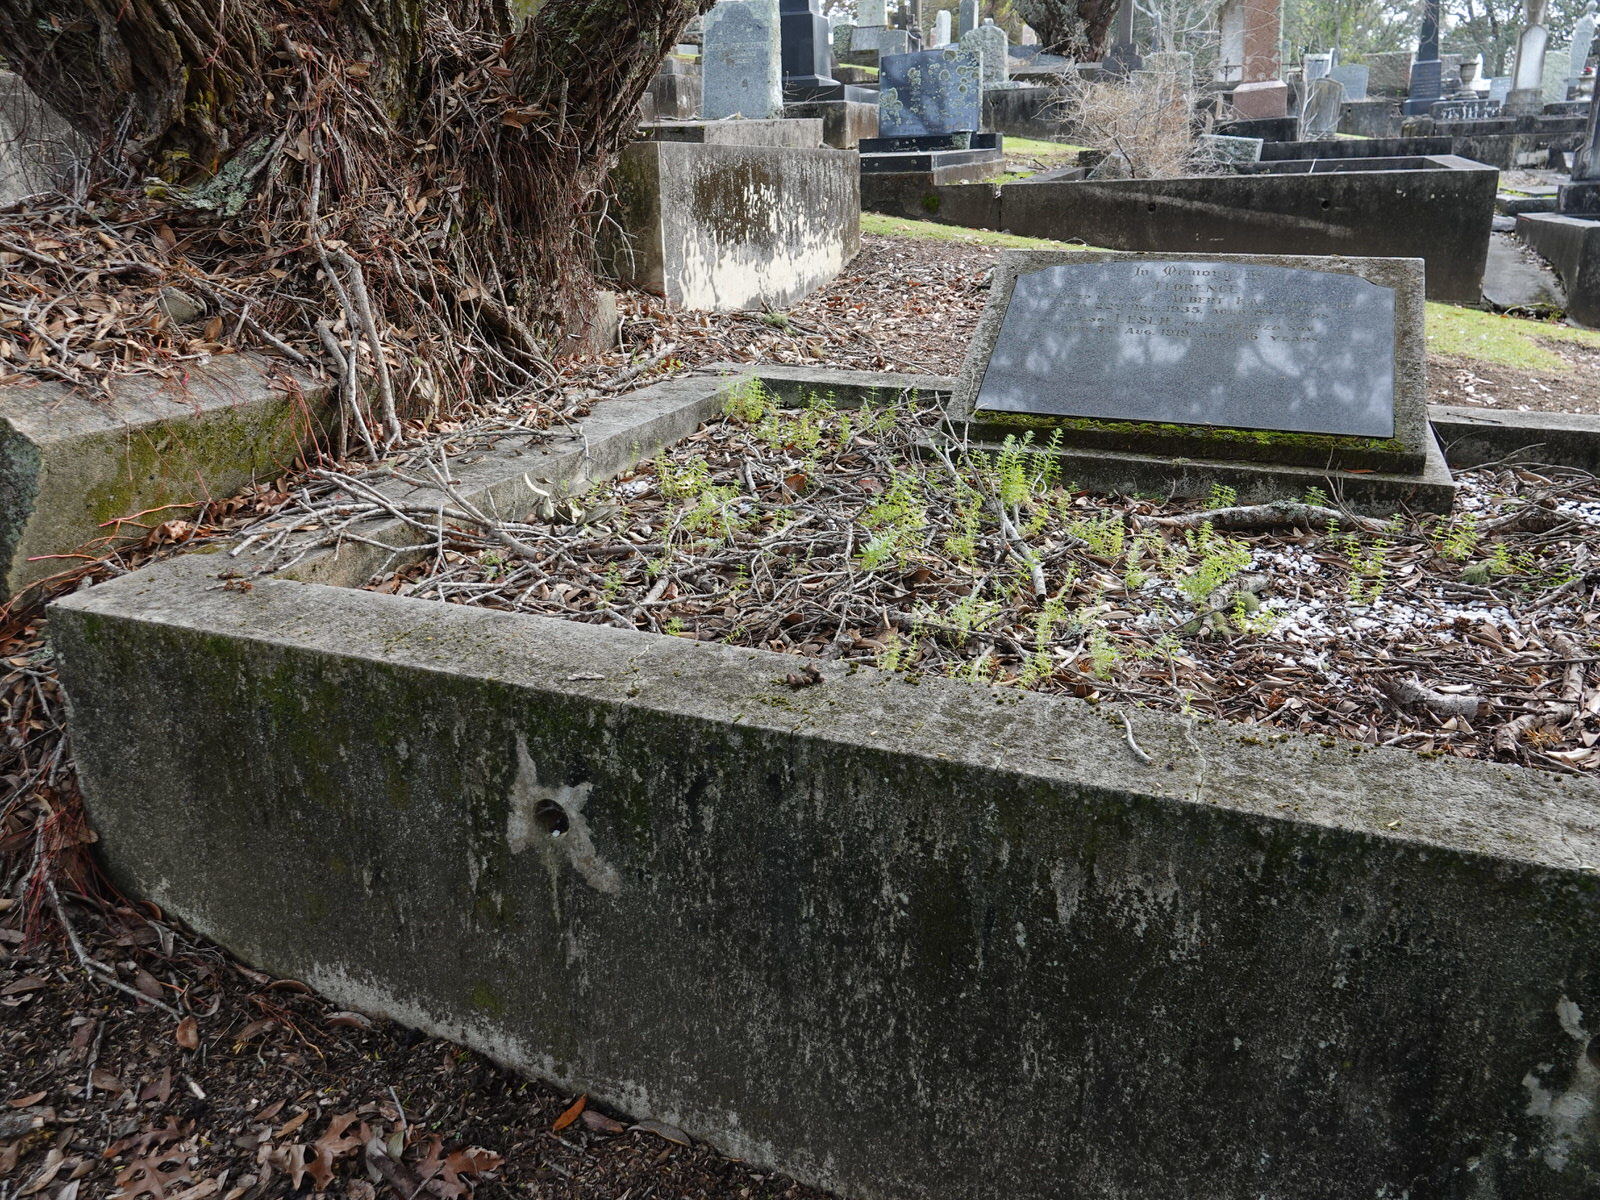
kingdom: Animalia
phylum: Chordata
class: Mammalia
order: Diprotodontia
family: Phalangeridae
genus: Trichosurus
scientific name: Trichosurus vulpecula
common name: Common brushtail
